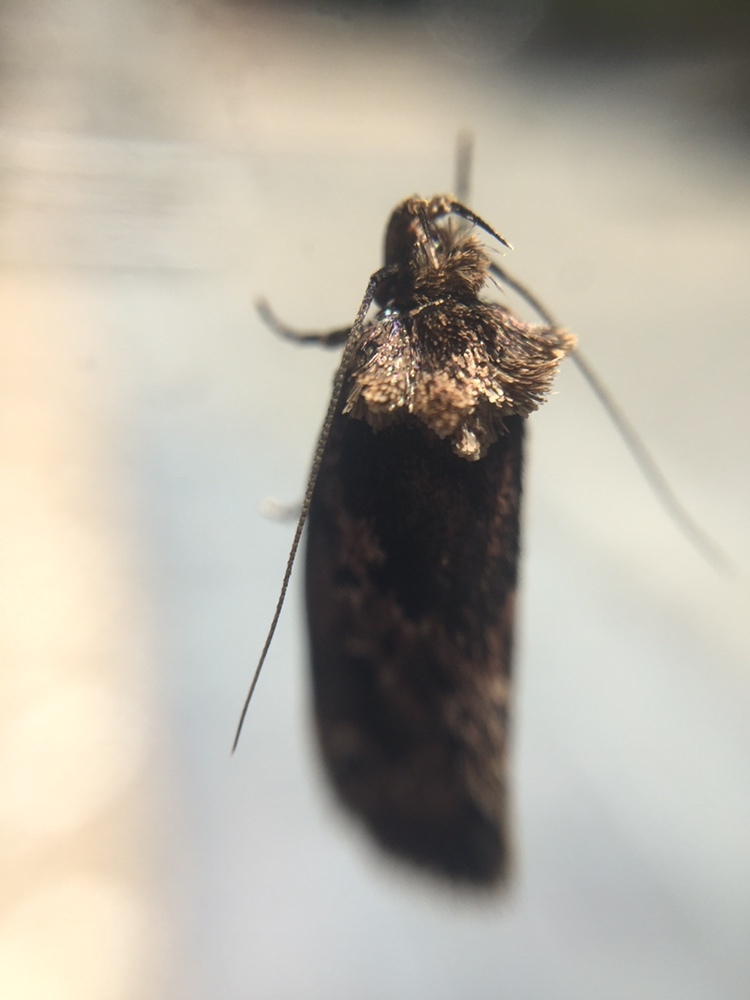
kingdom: Animalia
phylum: Arthropoda
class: Insecta
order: Lepidoptera
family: Oecophoridae
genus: Barea
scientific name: Barea consignatella
